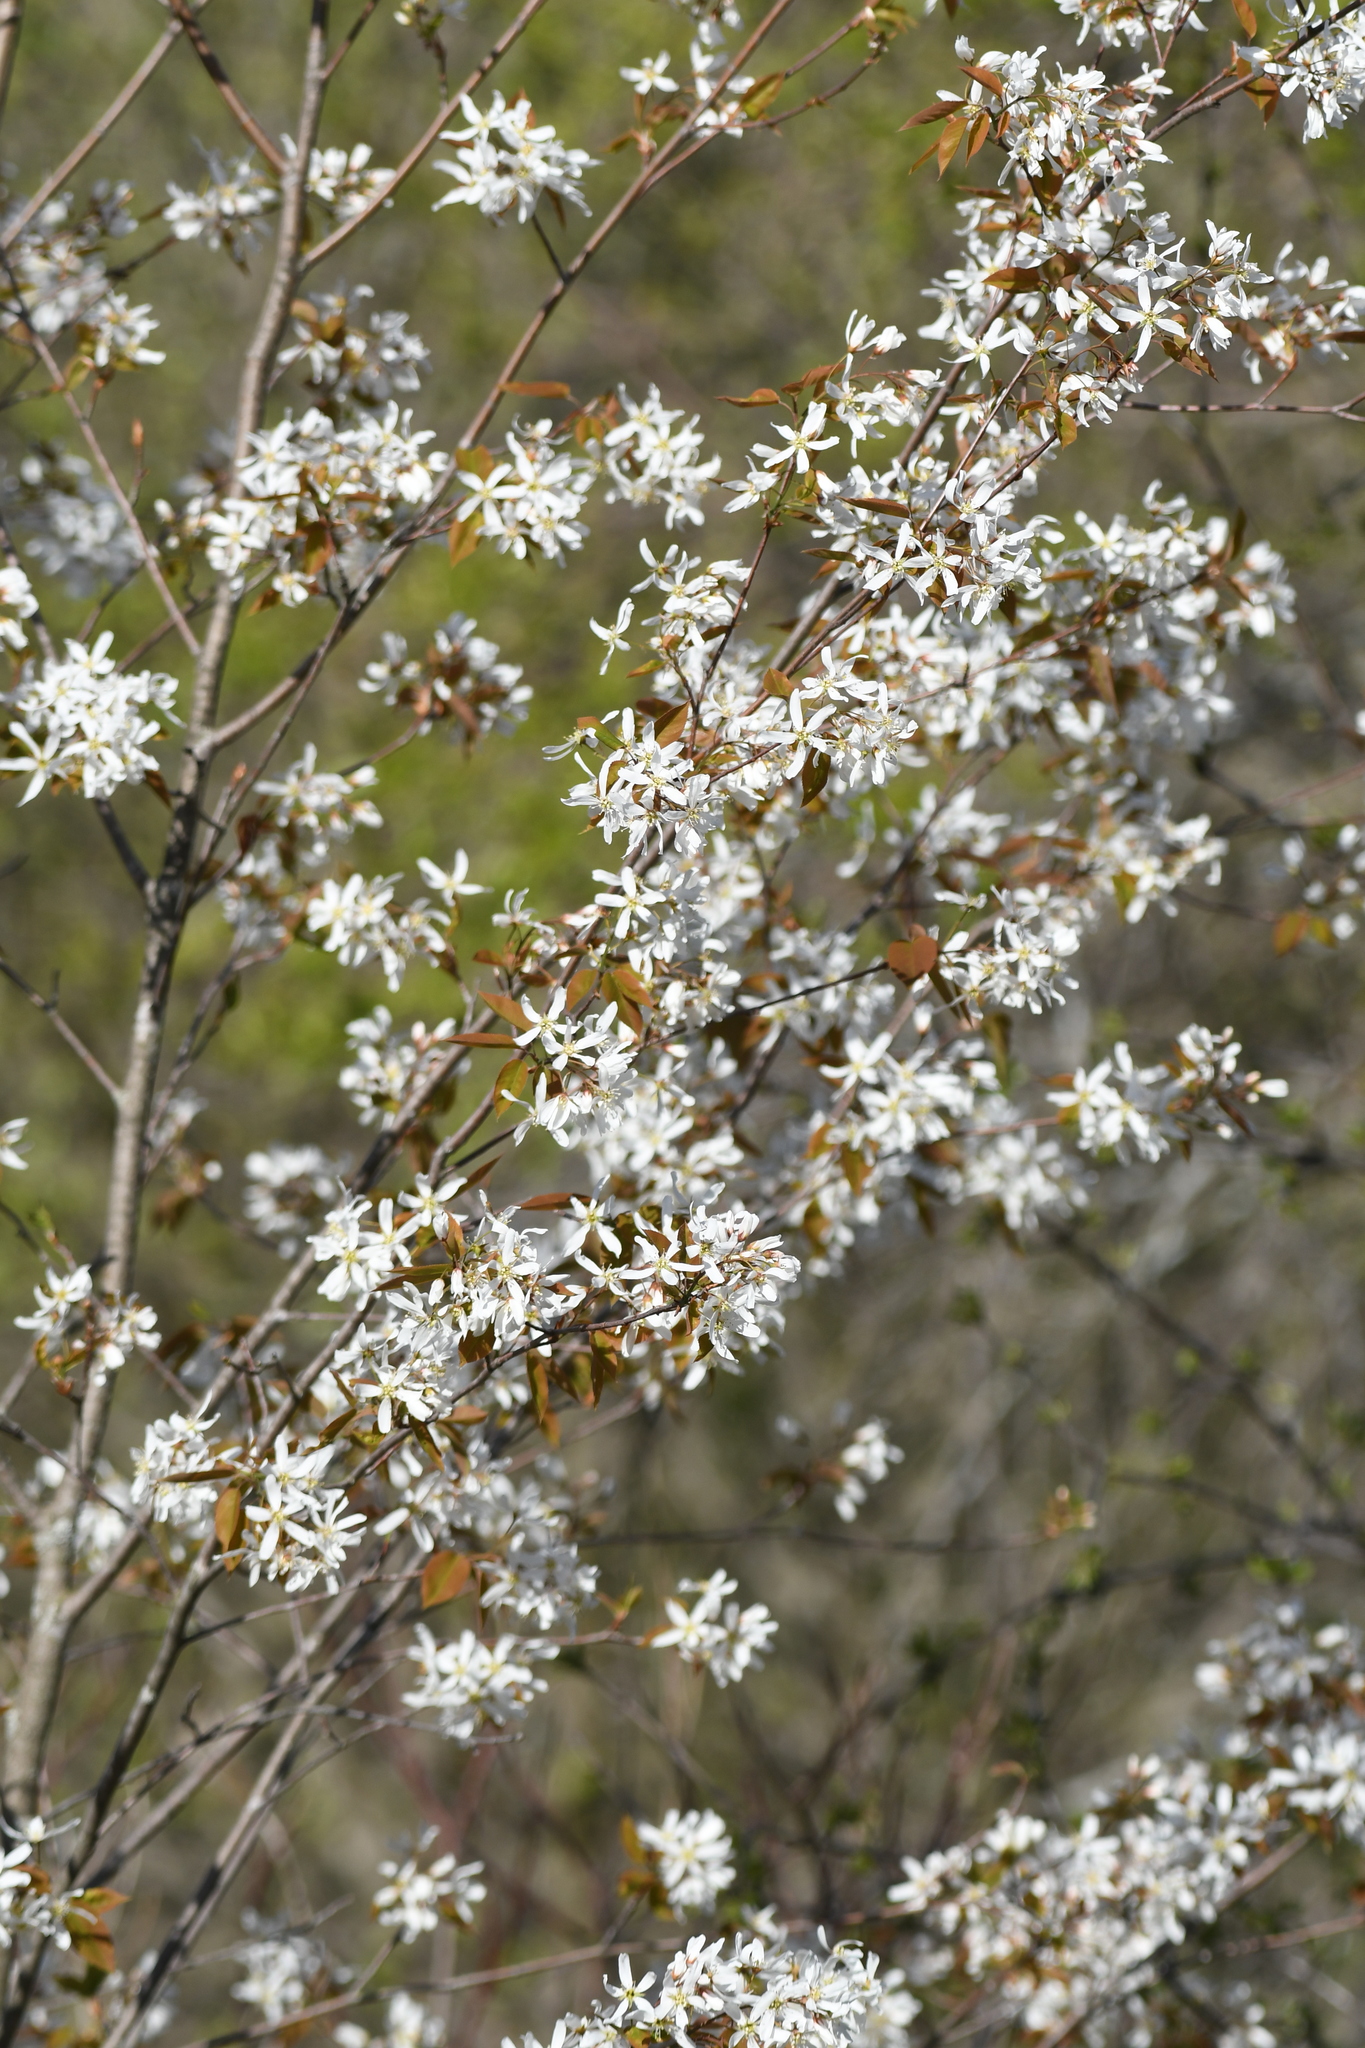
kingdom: Plantae
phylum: Tracheophyta
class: Magnoliopsida
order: Rosales
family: Rosaceae
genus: Amelanchier
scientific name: Amelanchier laevis
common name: Allegheny serviceberry
